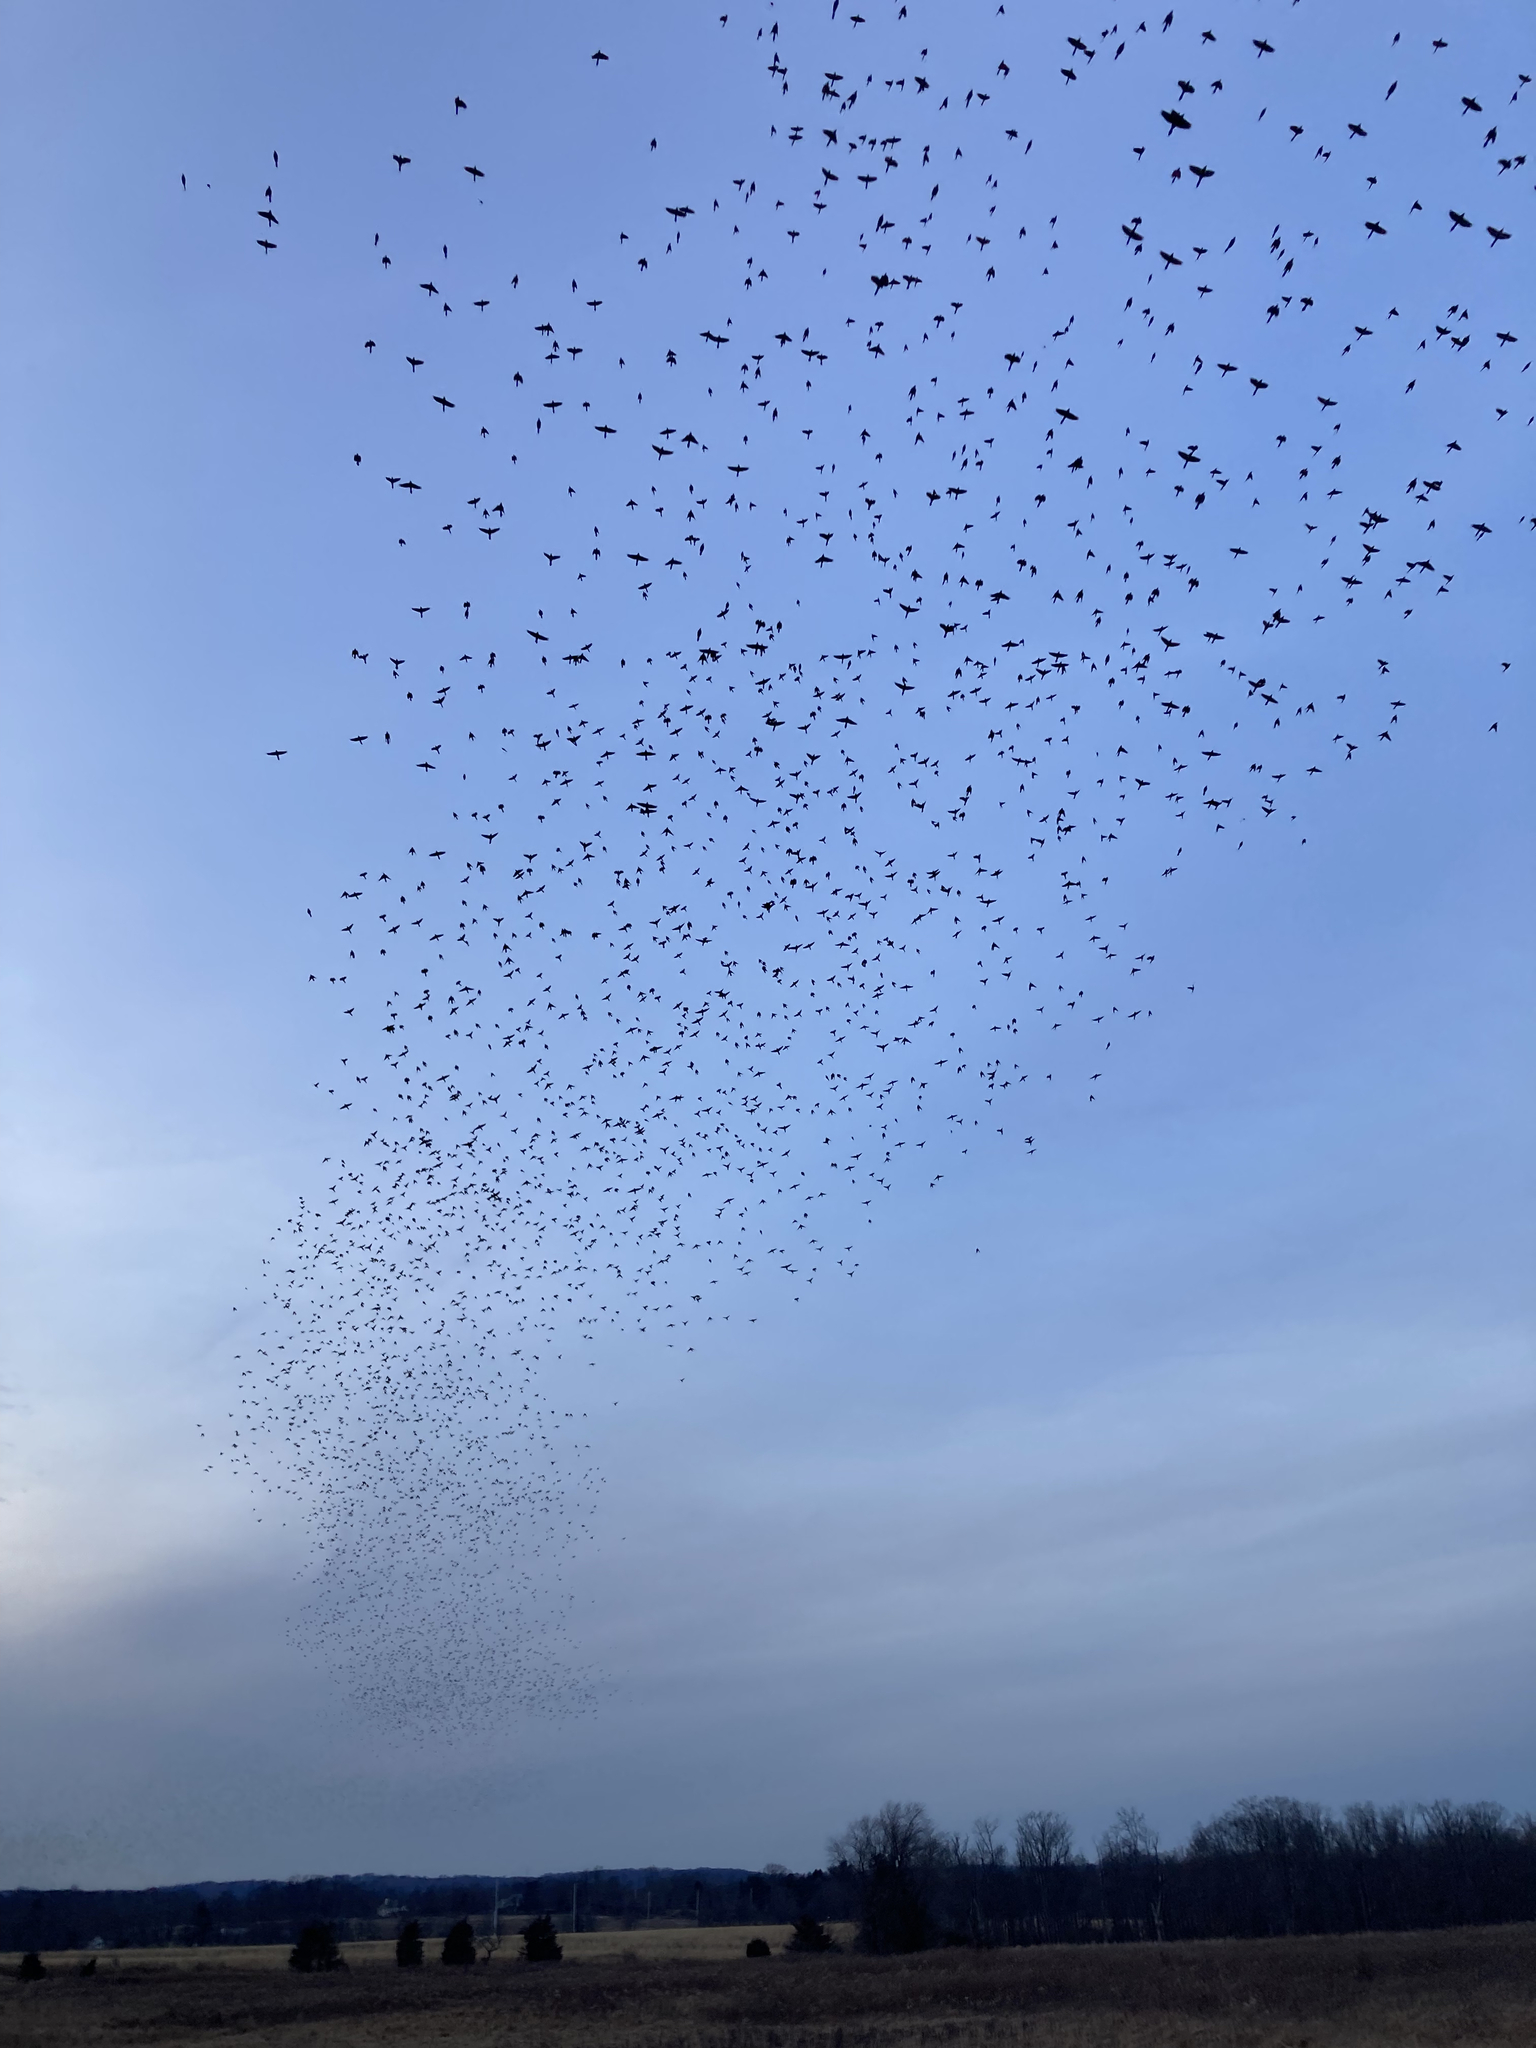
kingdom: Animalia
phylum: Chordata
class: Aves
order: Passeriformes
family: Icteridae
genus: Quiscalus
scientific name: Quiscalus quiscula
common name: Common grackle
